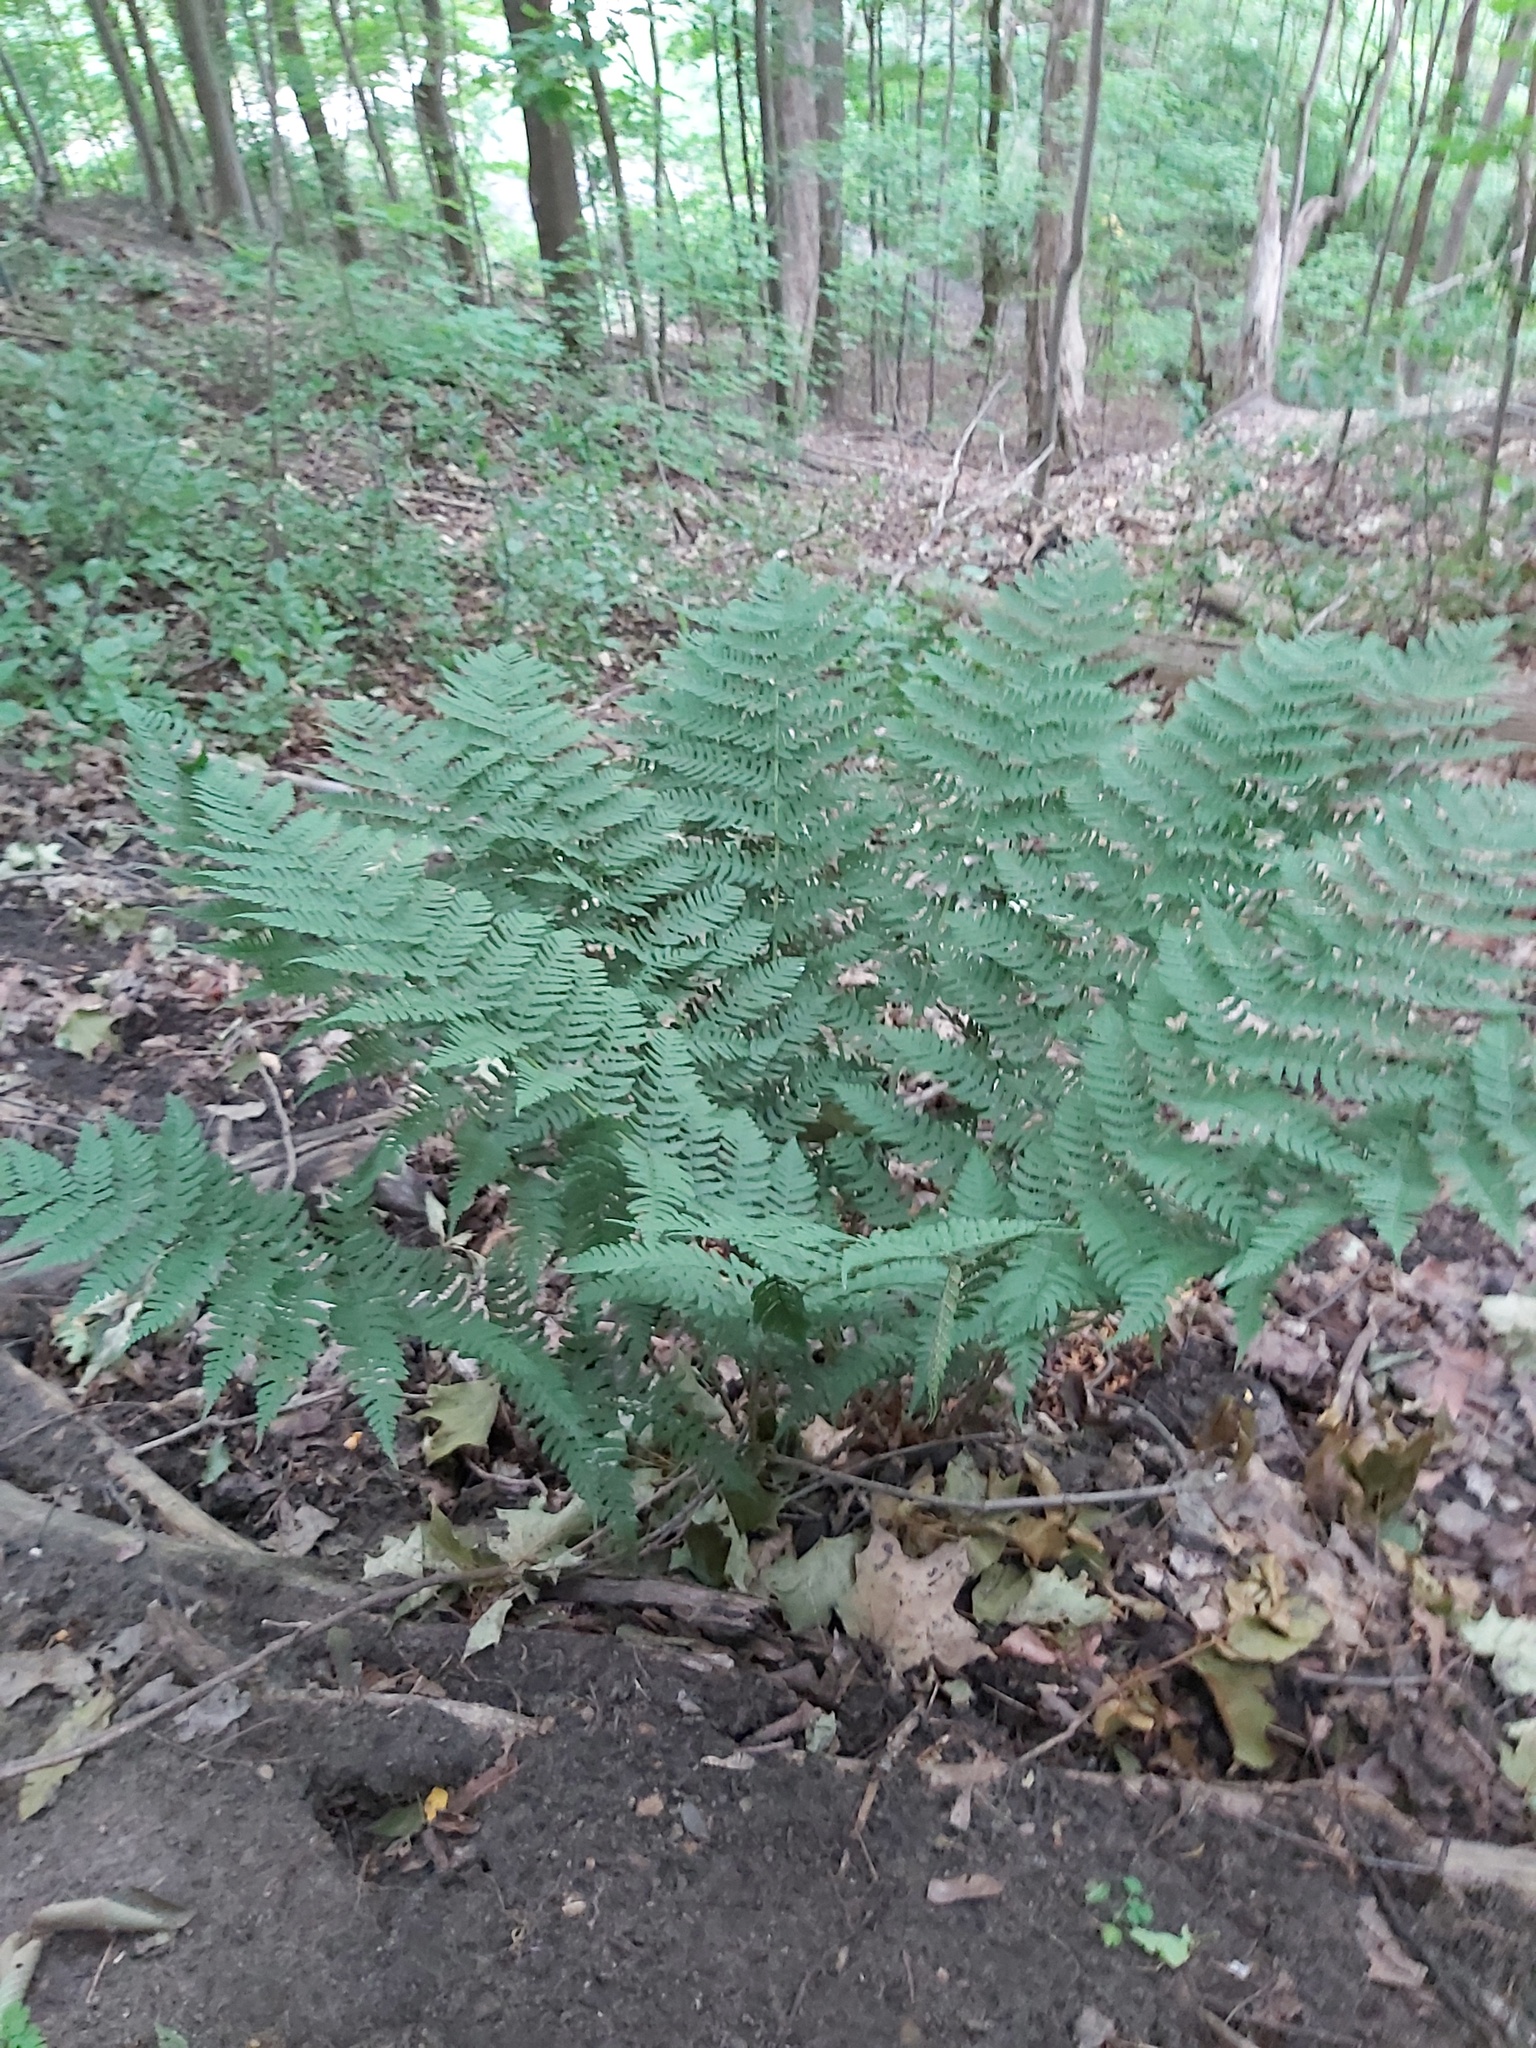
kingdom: Plantae
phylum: Tracheophyta
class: Polypodiopsida
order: Polypodiales
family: Dryopteridaceae
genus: Dryopteris
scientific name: Dryopteris marginalis
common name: Marginal wood fern
